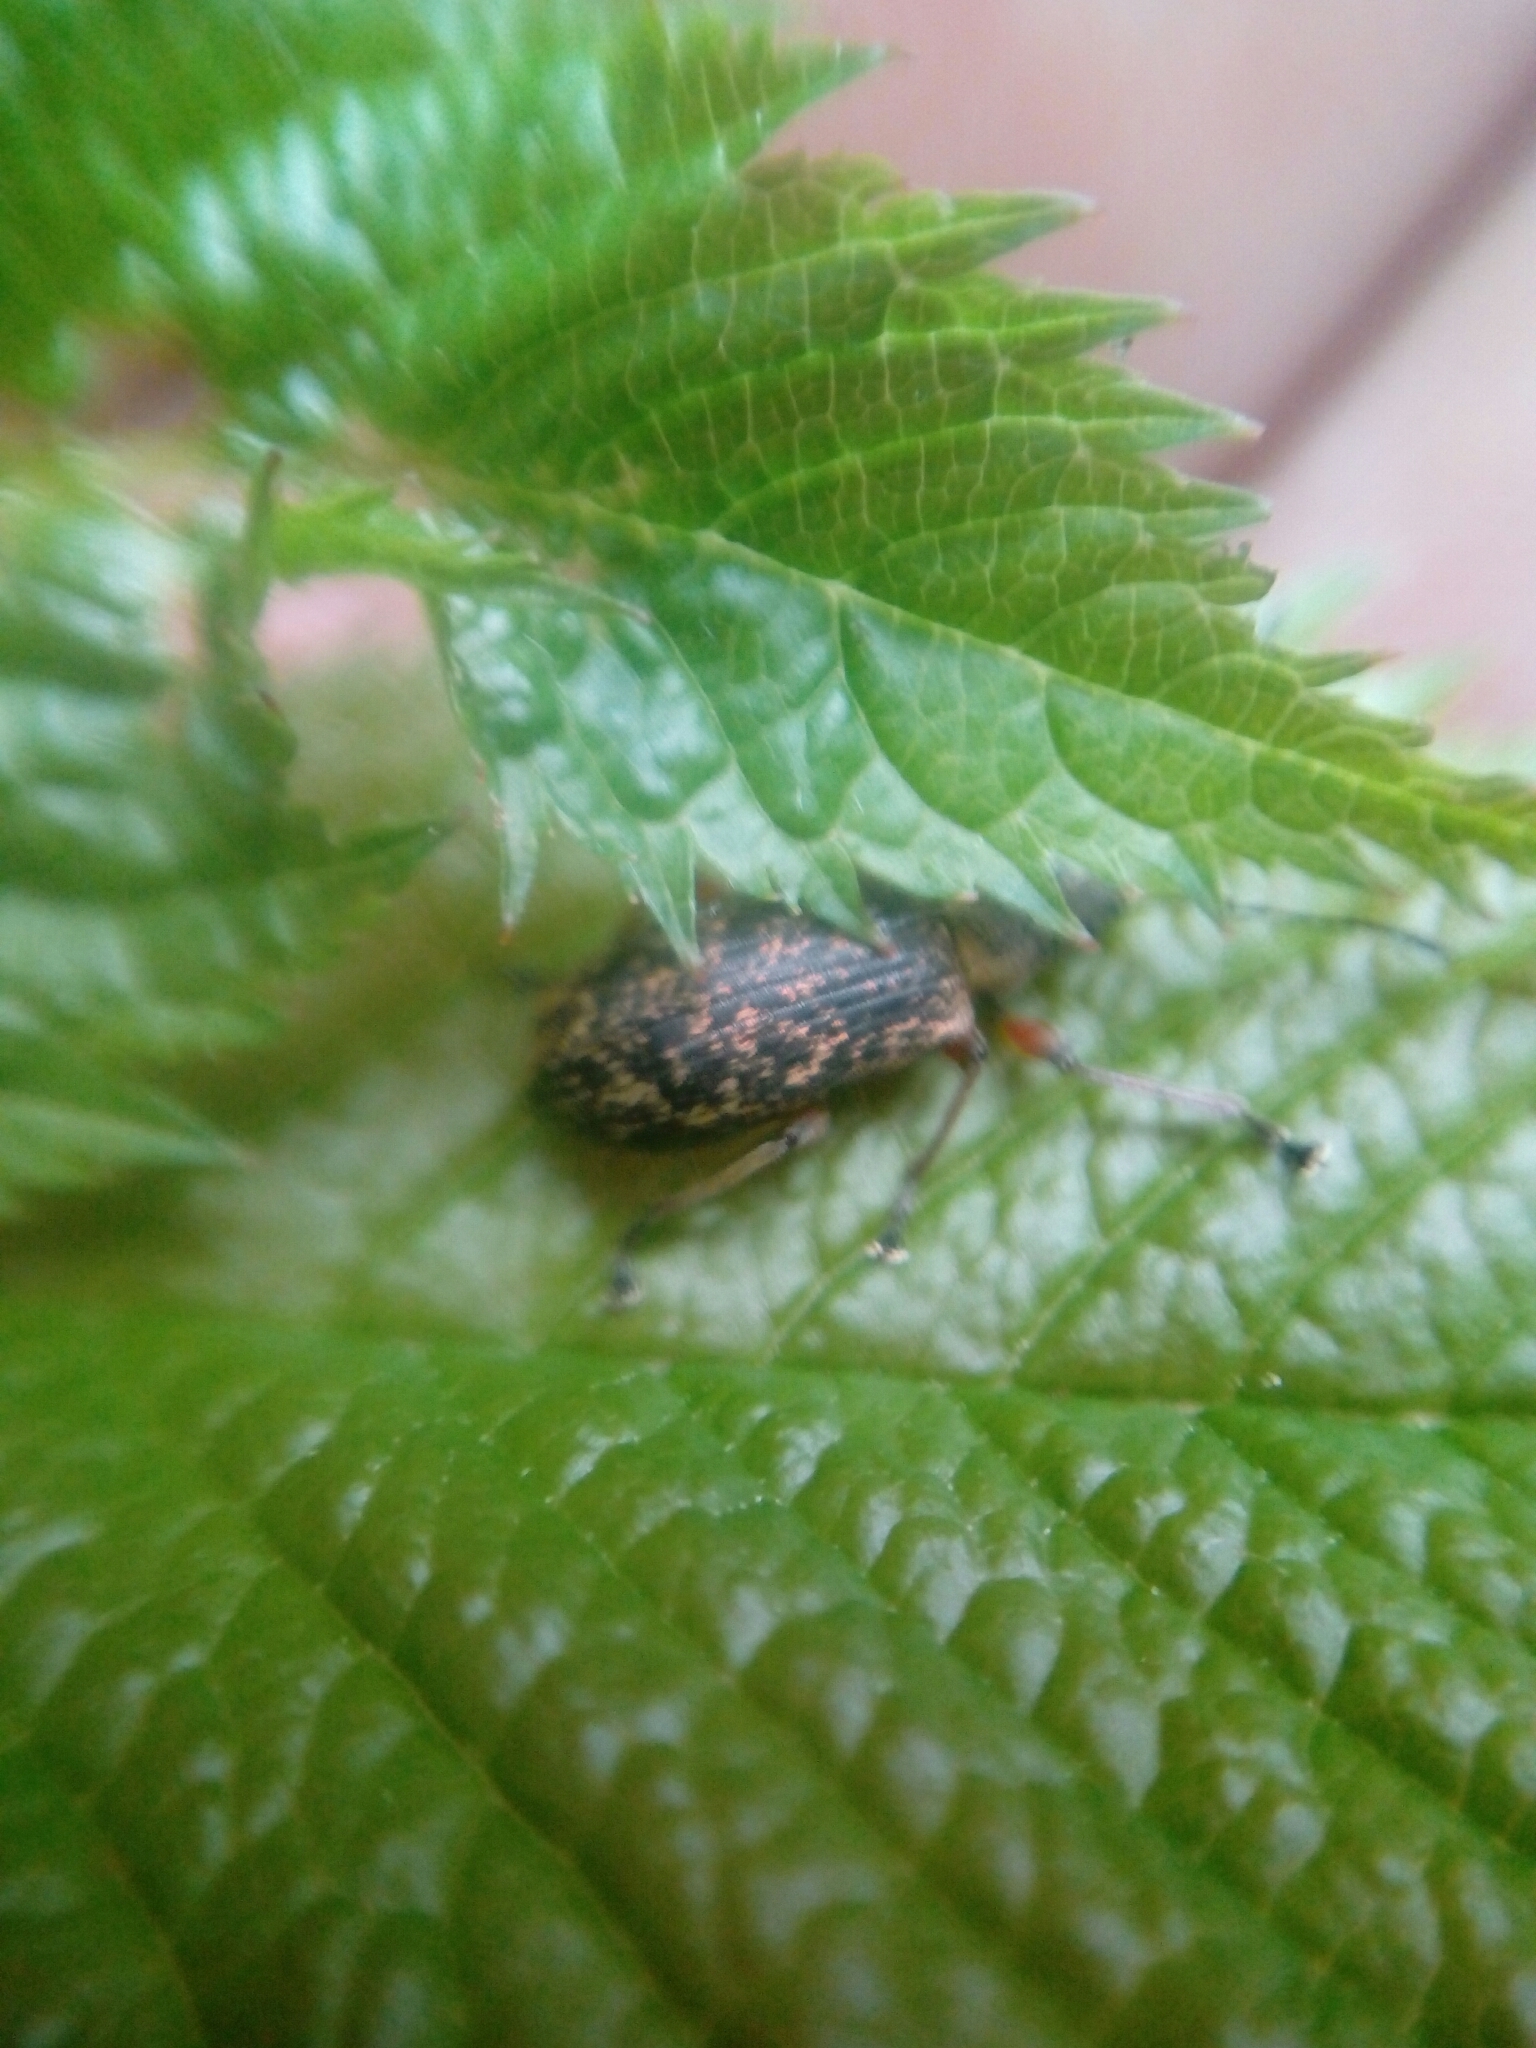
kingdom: Animalia
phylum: Arthropoda
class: Insecta
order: Coleoptera
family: Curculionidae
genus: Phyllobius
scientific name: Phyllobius glaucus
